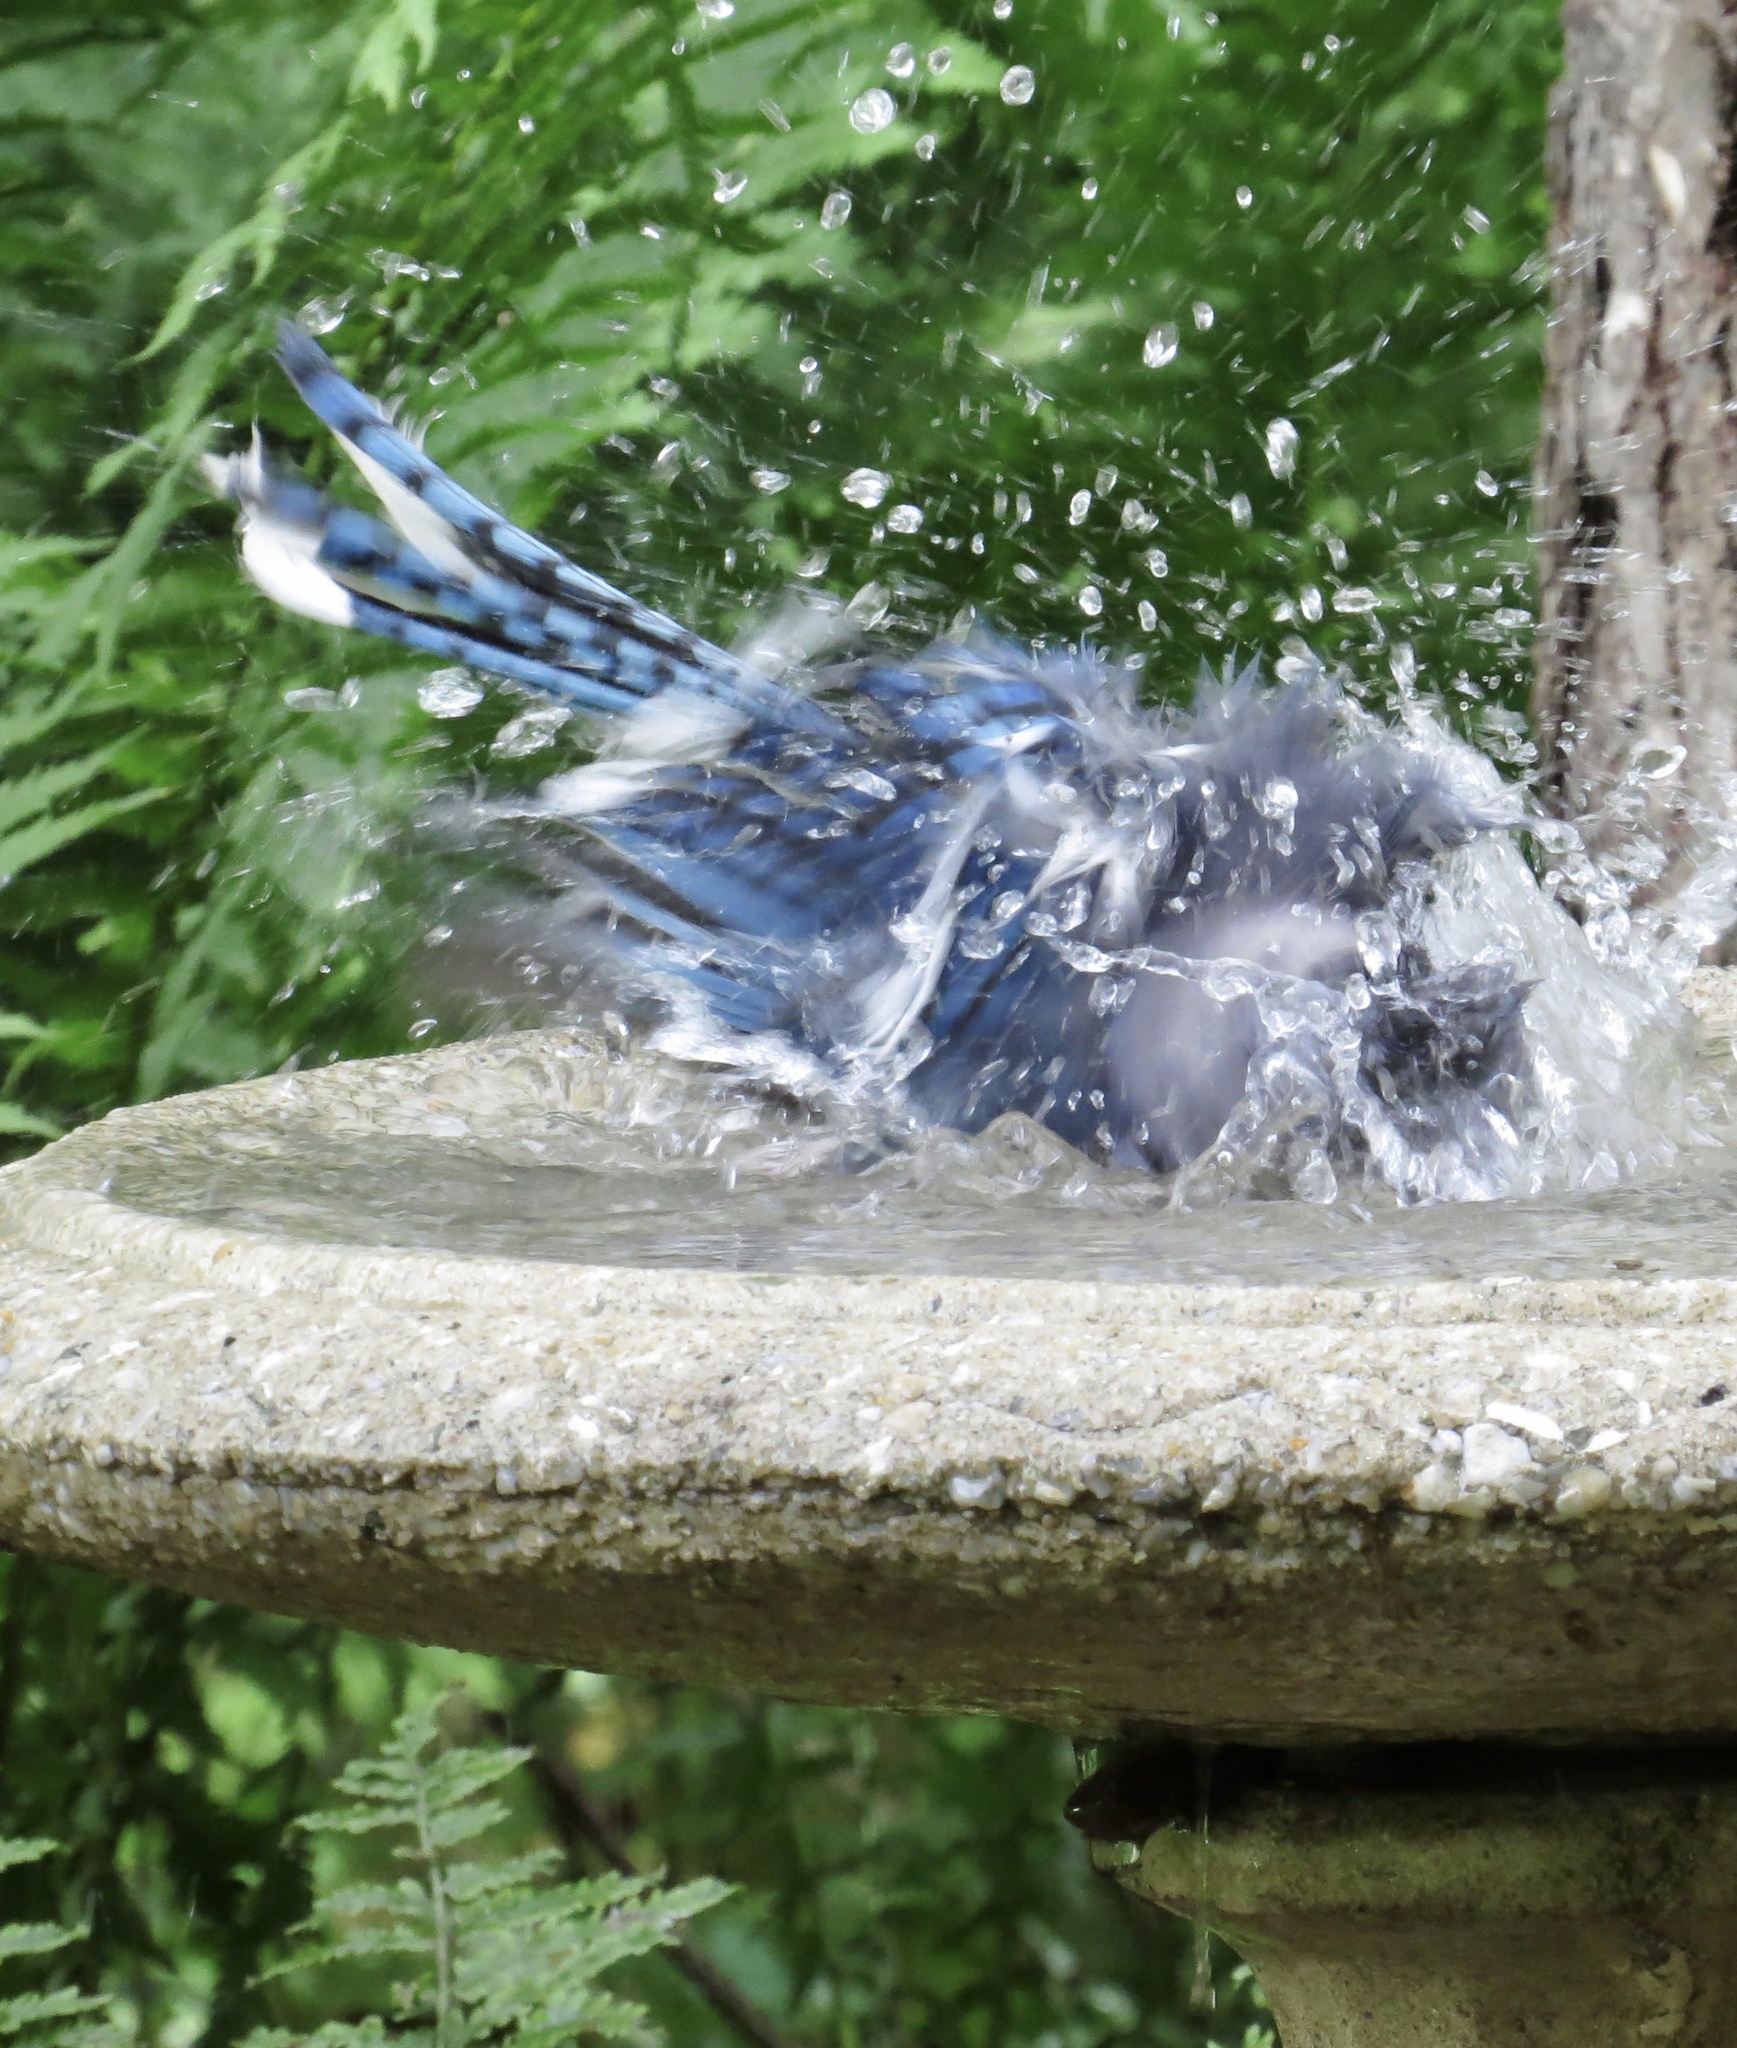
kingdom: Animalia
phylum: Chordata
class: Aves
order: Passeriformes
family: Corvidae
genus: Cyanocitta
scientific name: Cyanocitta cristata
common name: Blue jay
